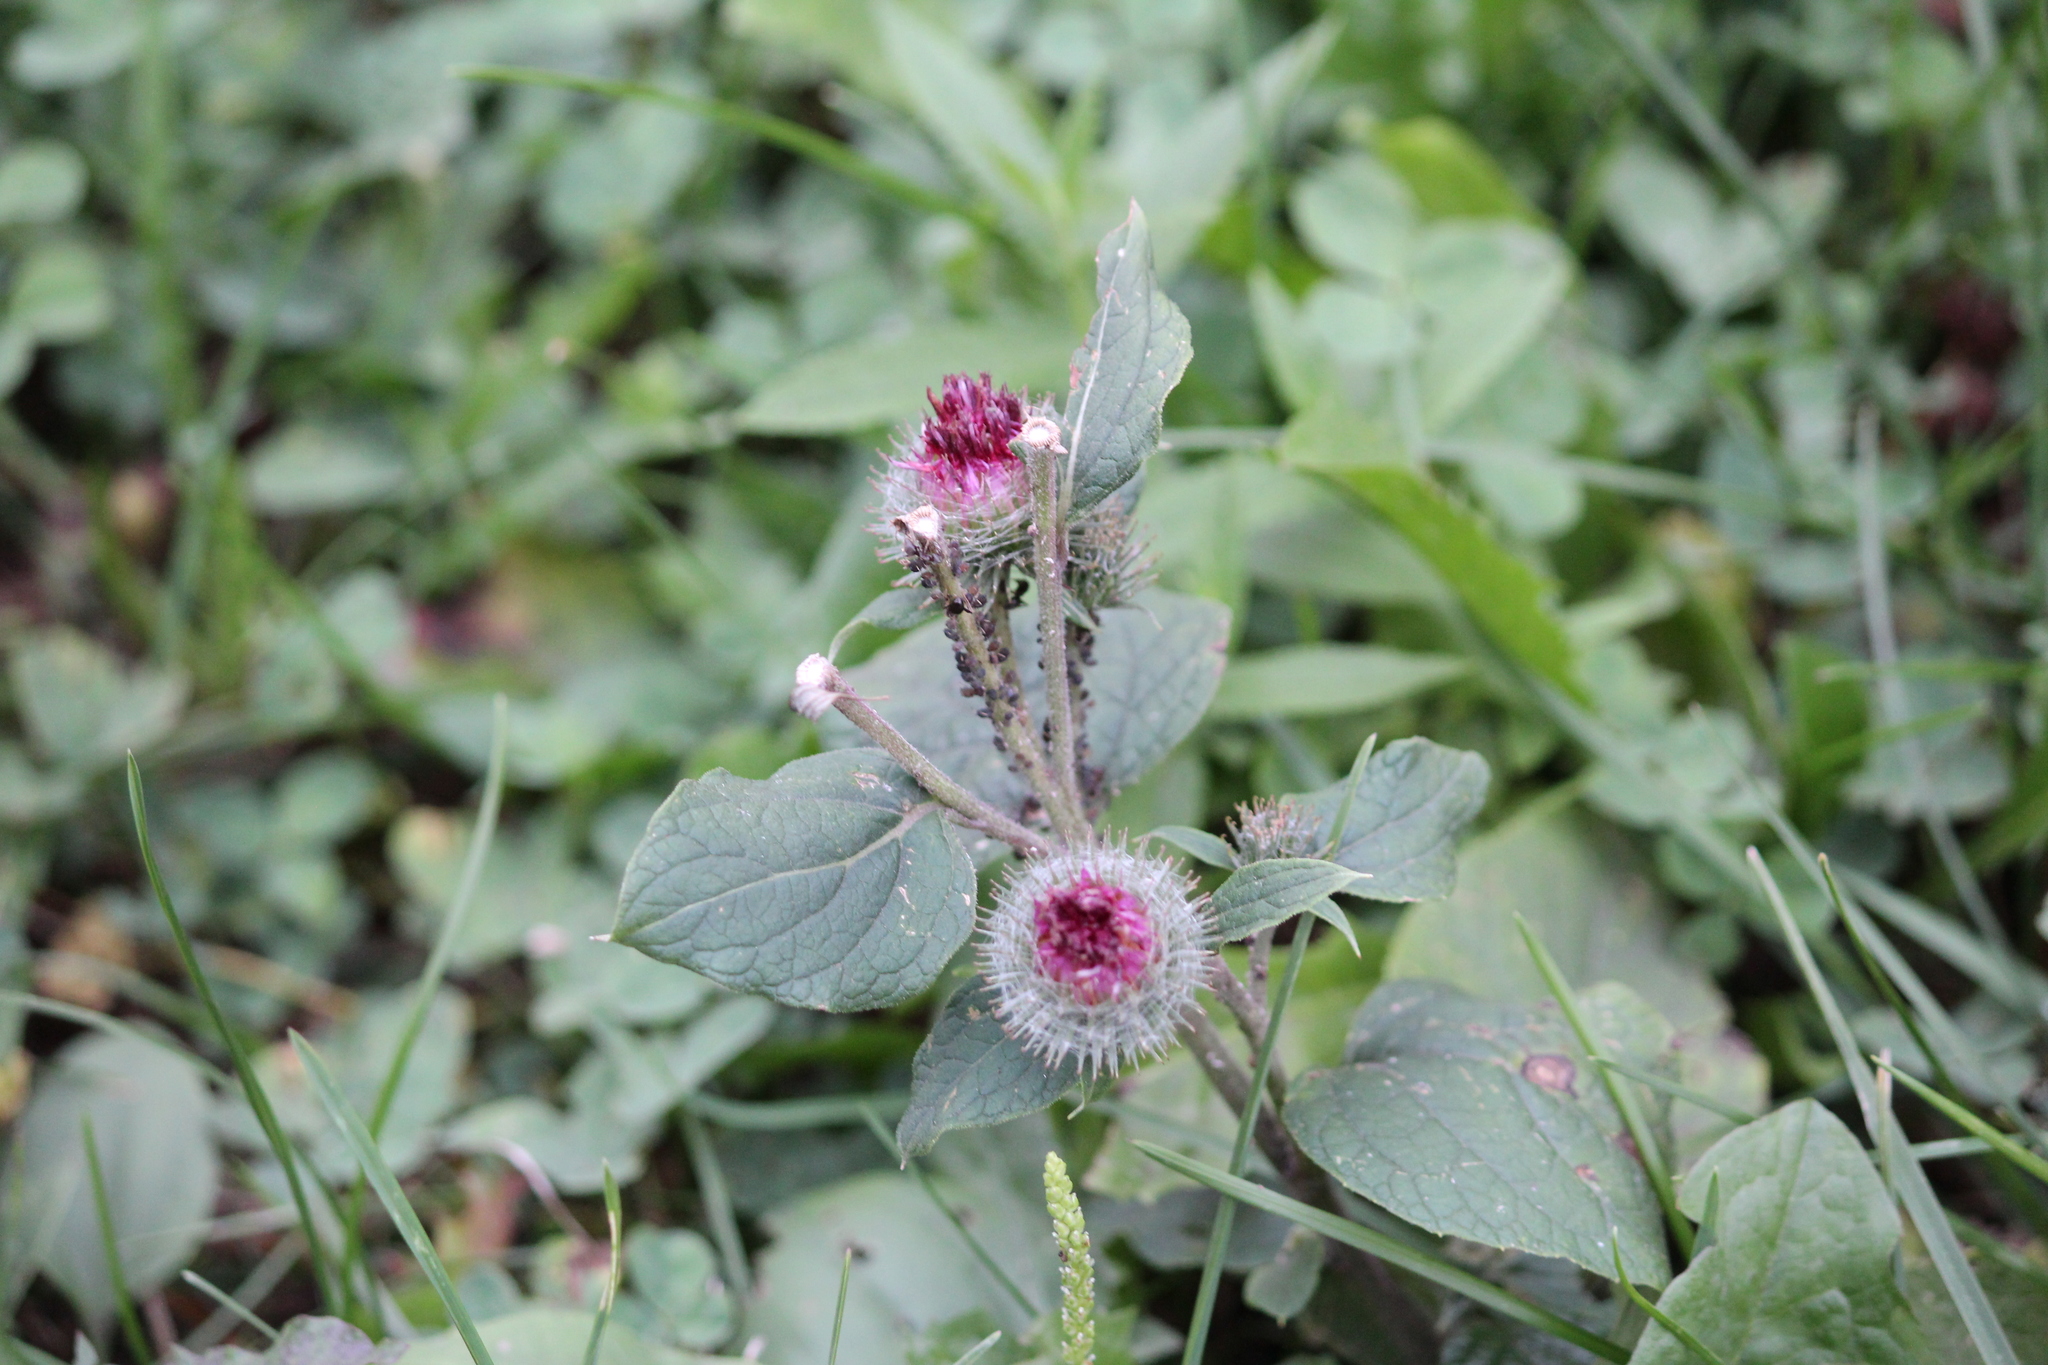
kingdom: Plantae
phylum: Tracheophyta
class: Magnoliopsida
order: Asterales
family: Asteraceae
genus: Arctium
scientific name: Arctium tomentosum
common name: Woolly burdock
